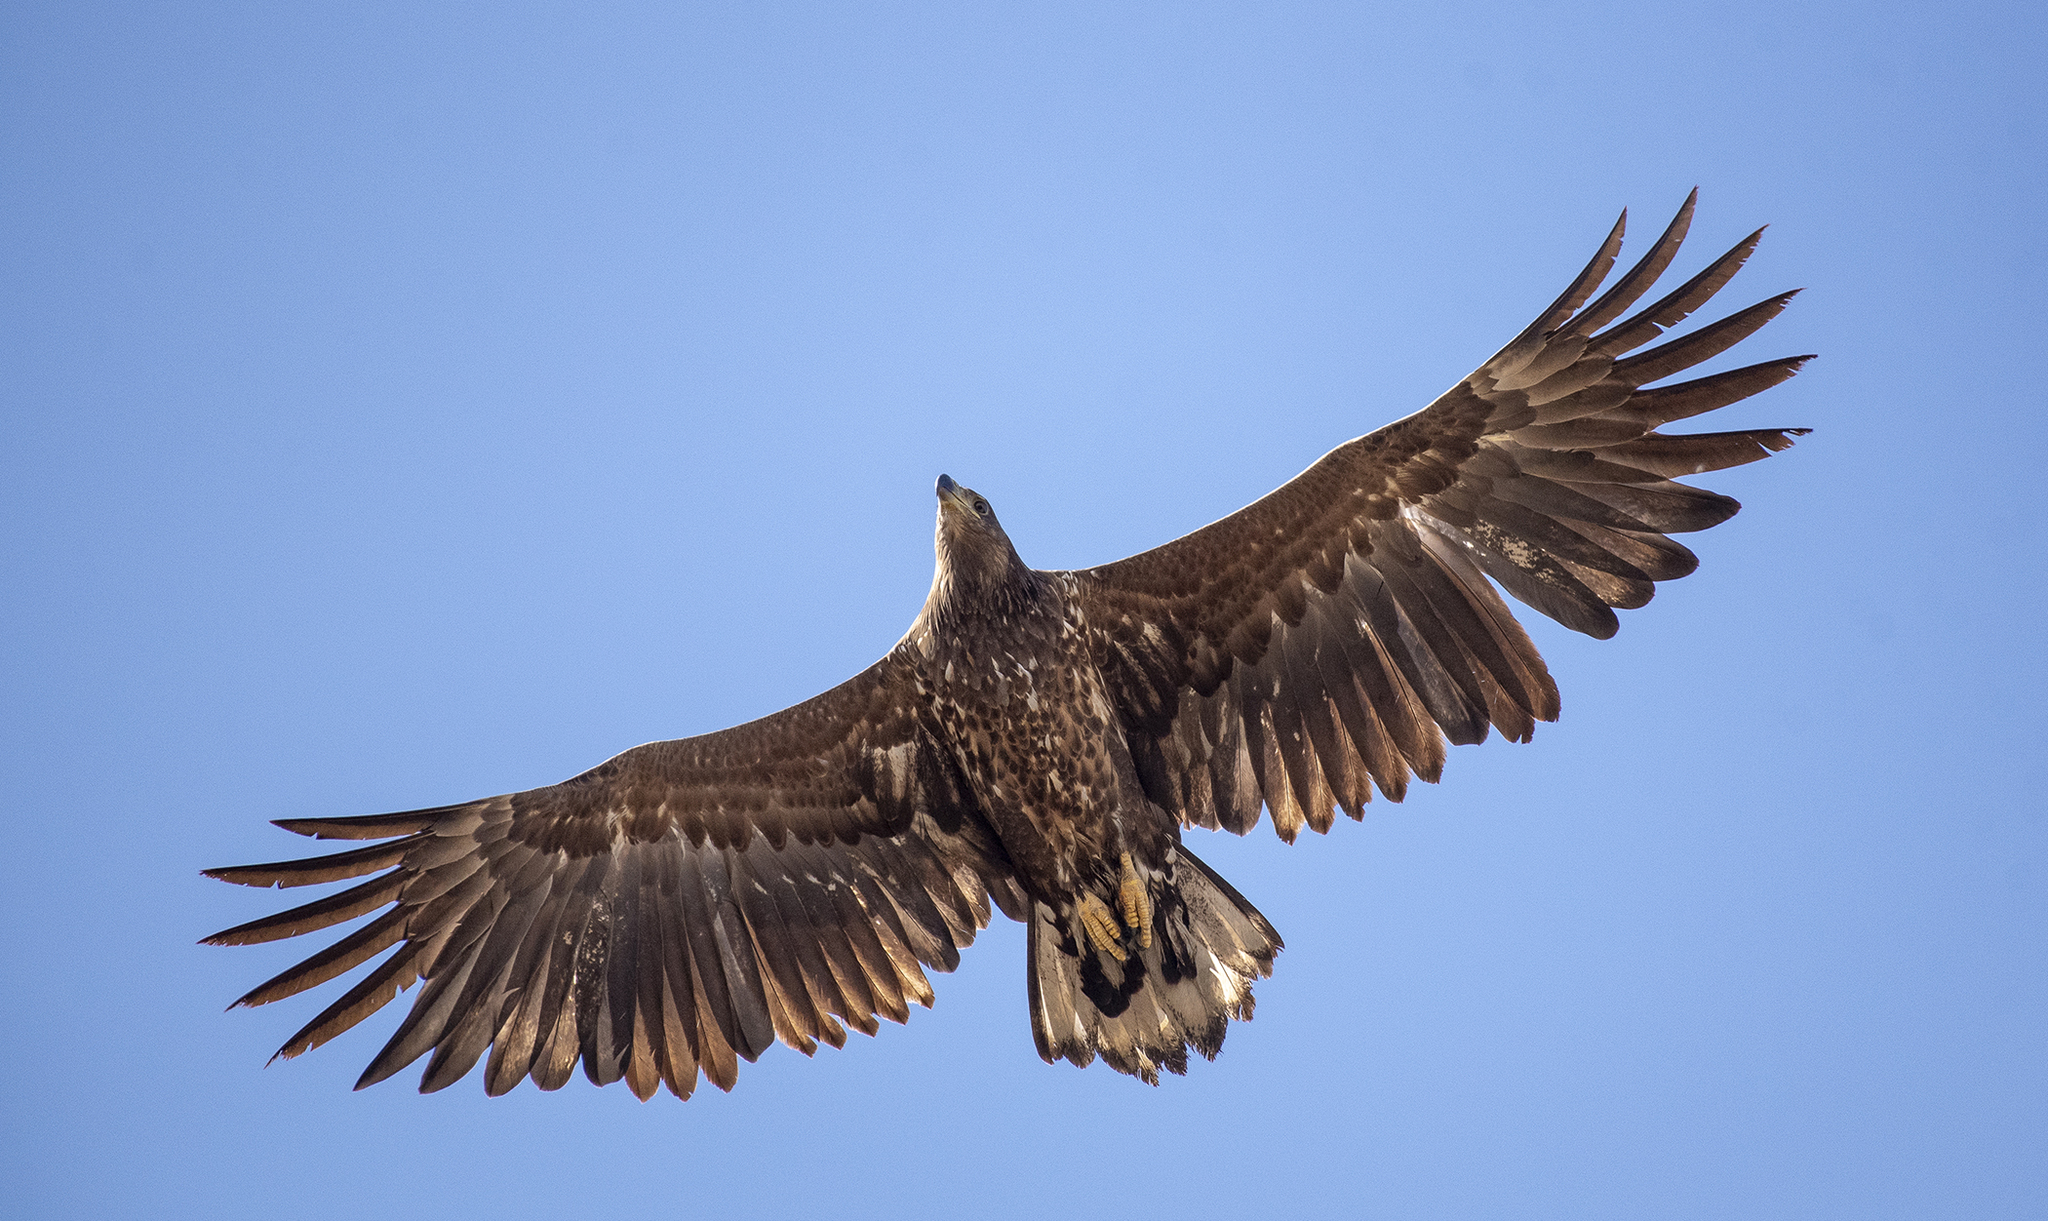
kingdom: Animalia
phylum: Chordata
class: Aves
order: Accipitriformes
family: Accipitridae
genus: Haliaeetus
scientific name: Haliaeetus albicilla
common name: White-tailed eagle
